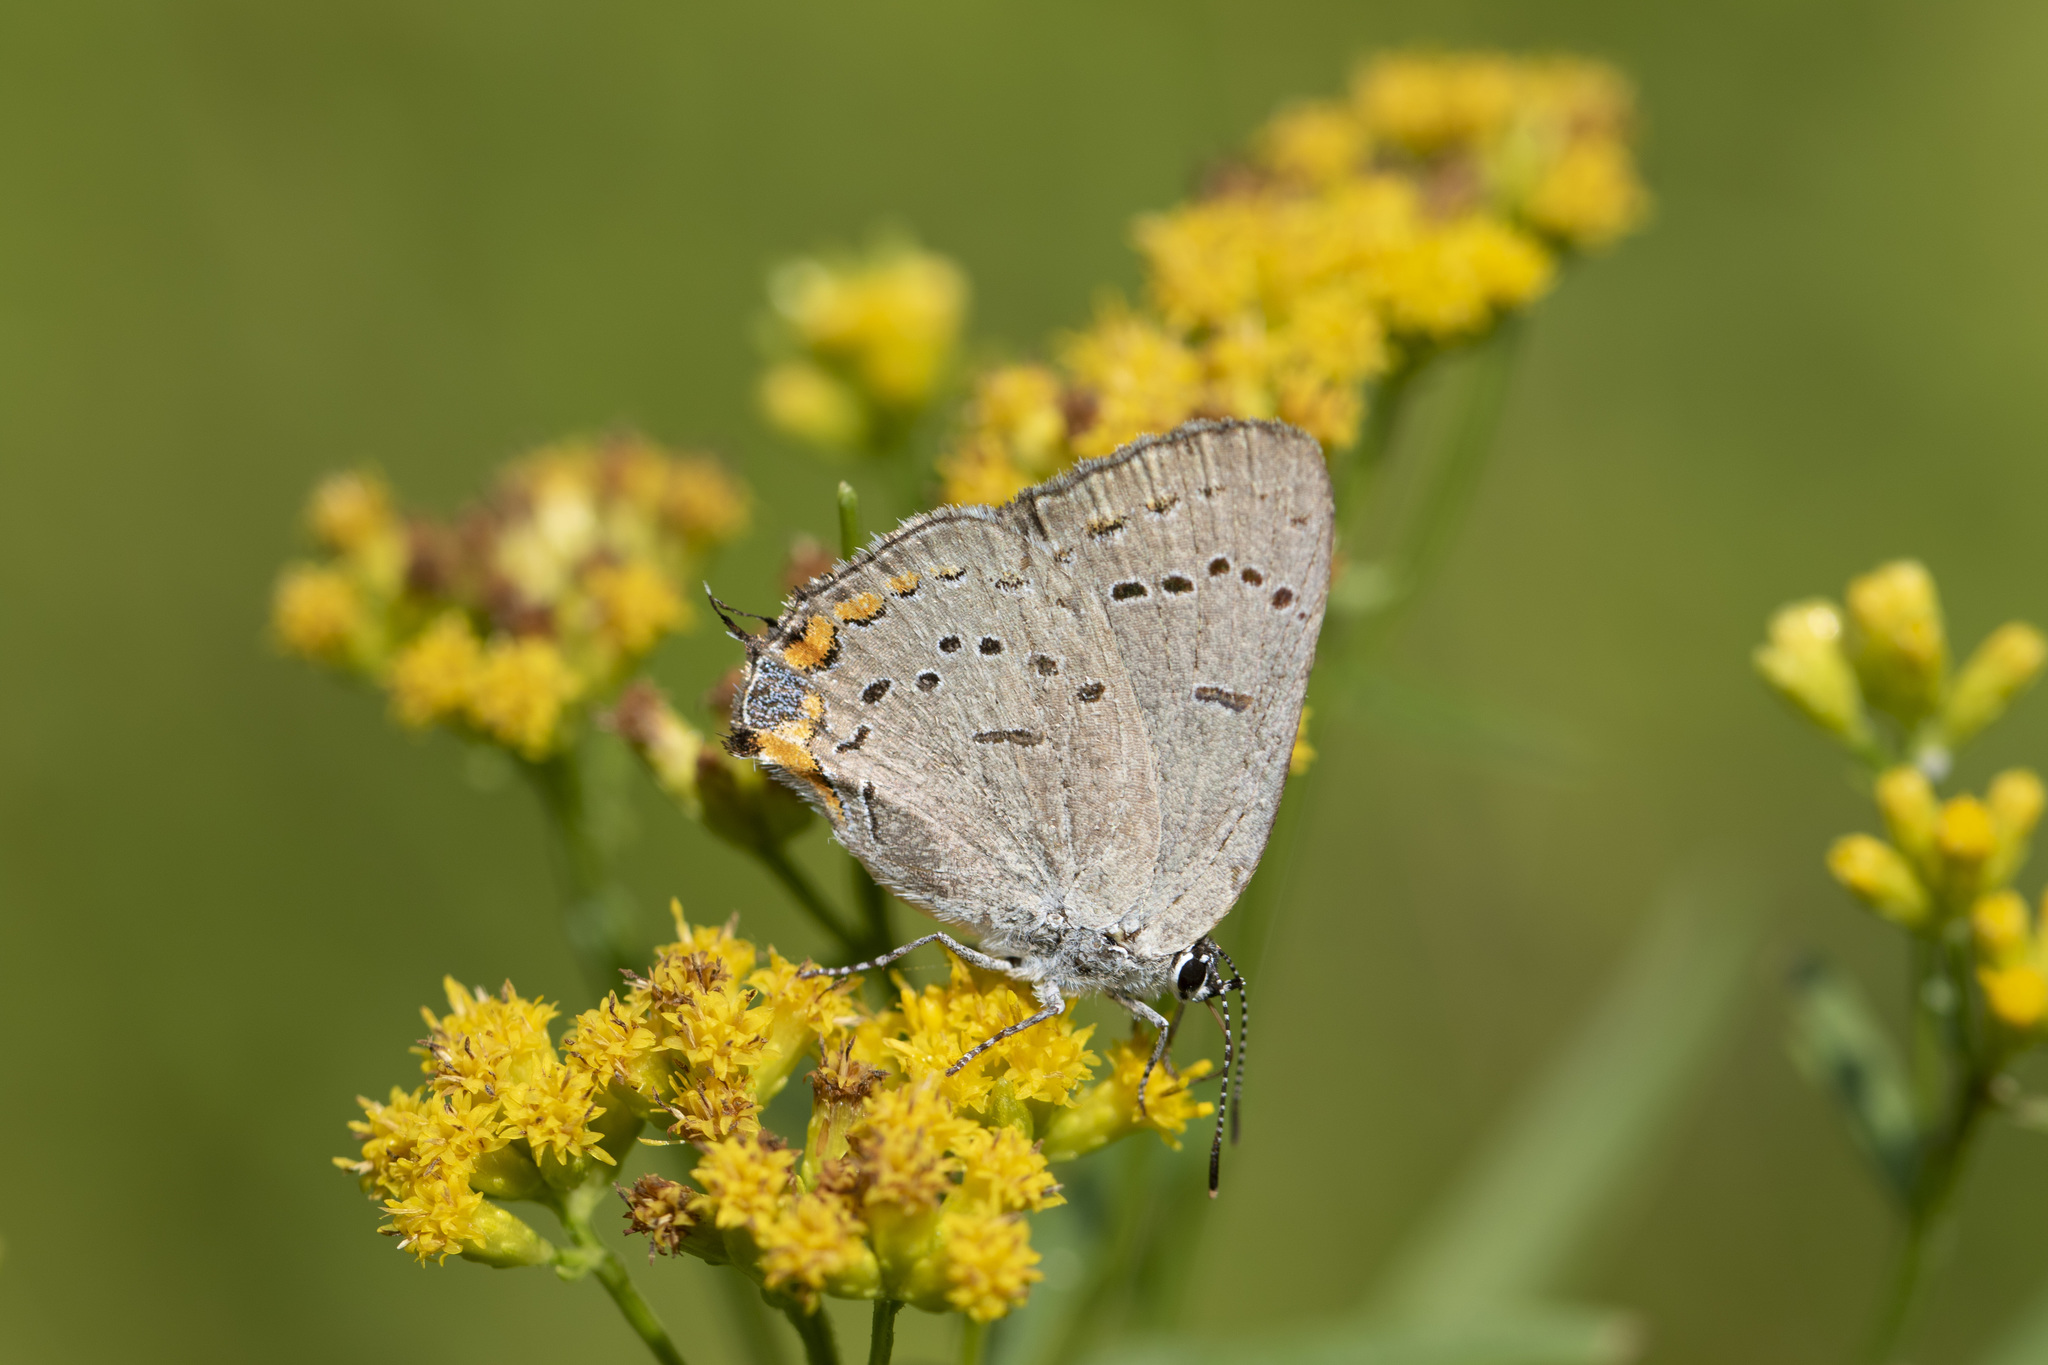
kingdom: Animalia
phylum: Arthropoda
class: Insecta
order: Lepidoptera
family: Lycaenidae
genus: Strymon
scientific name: Strymon acadica
